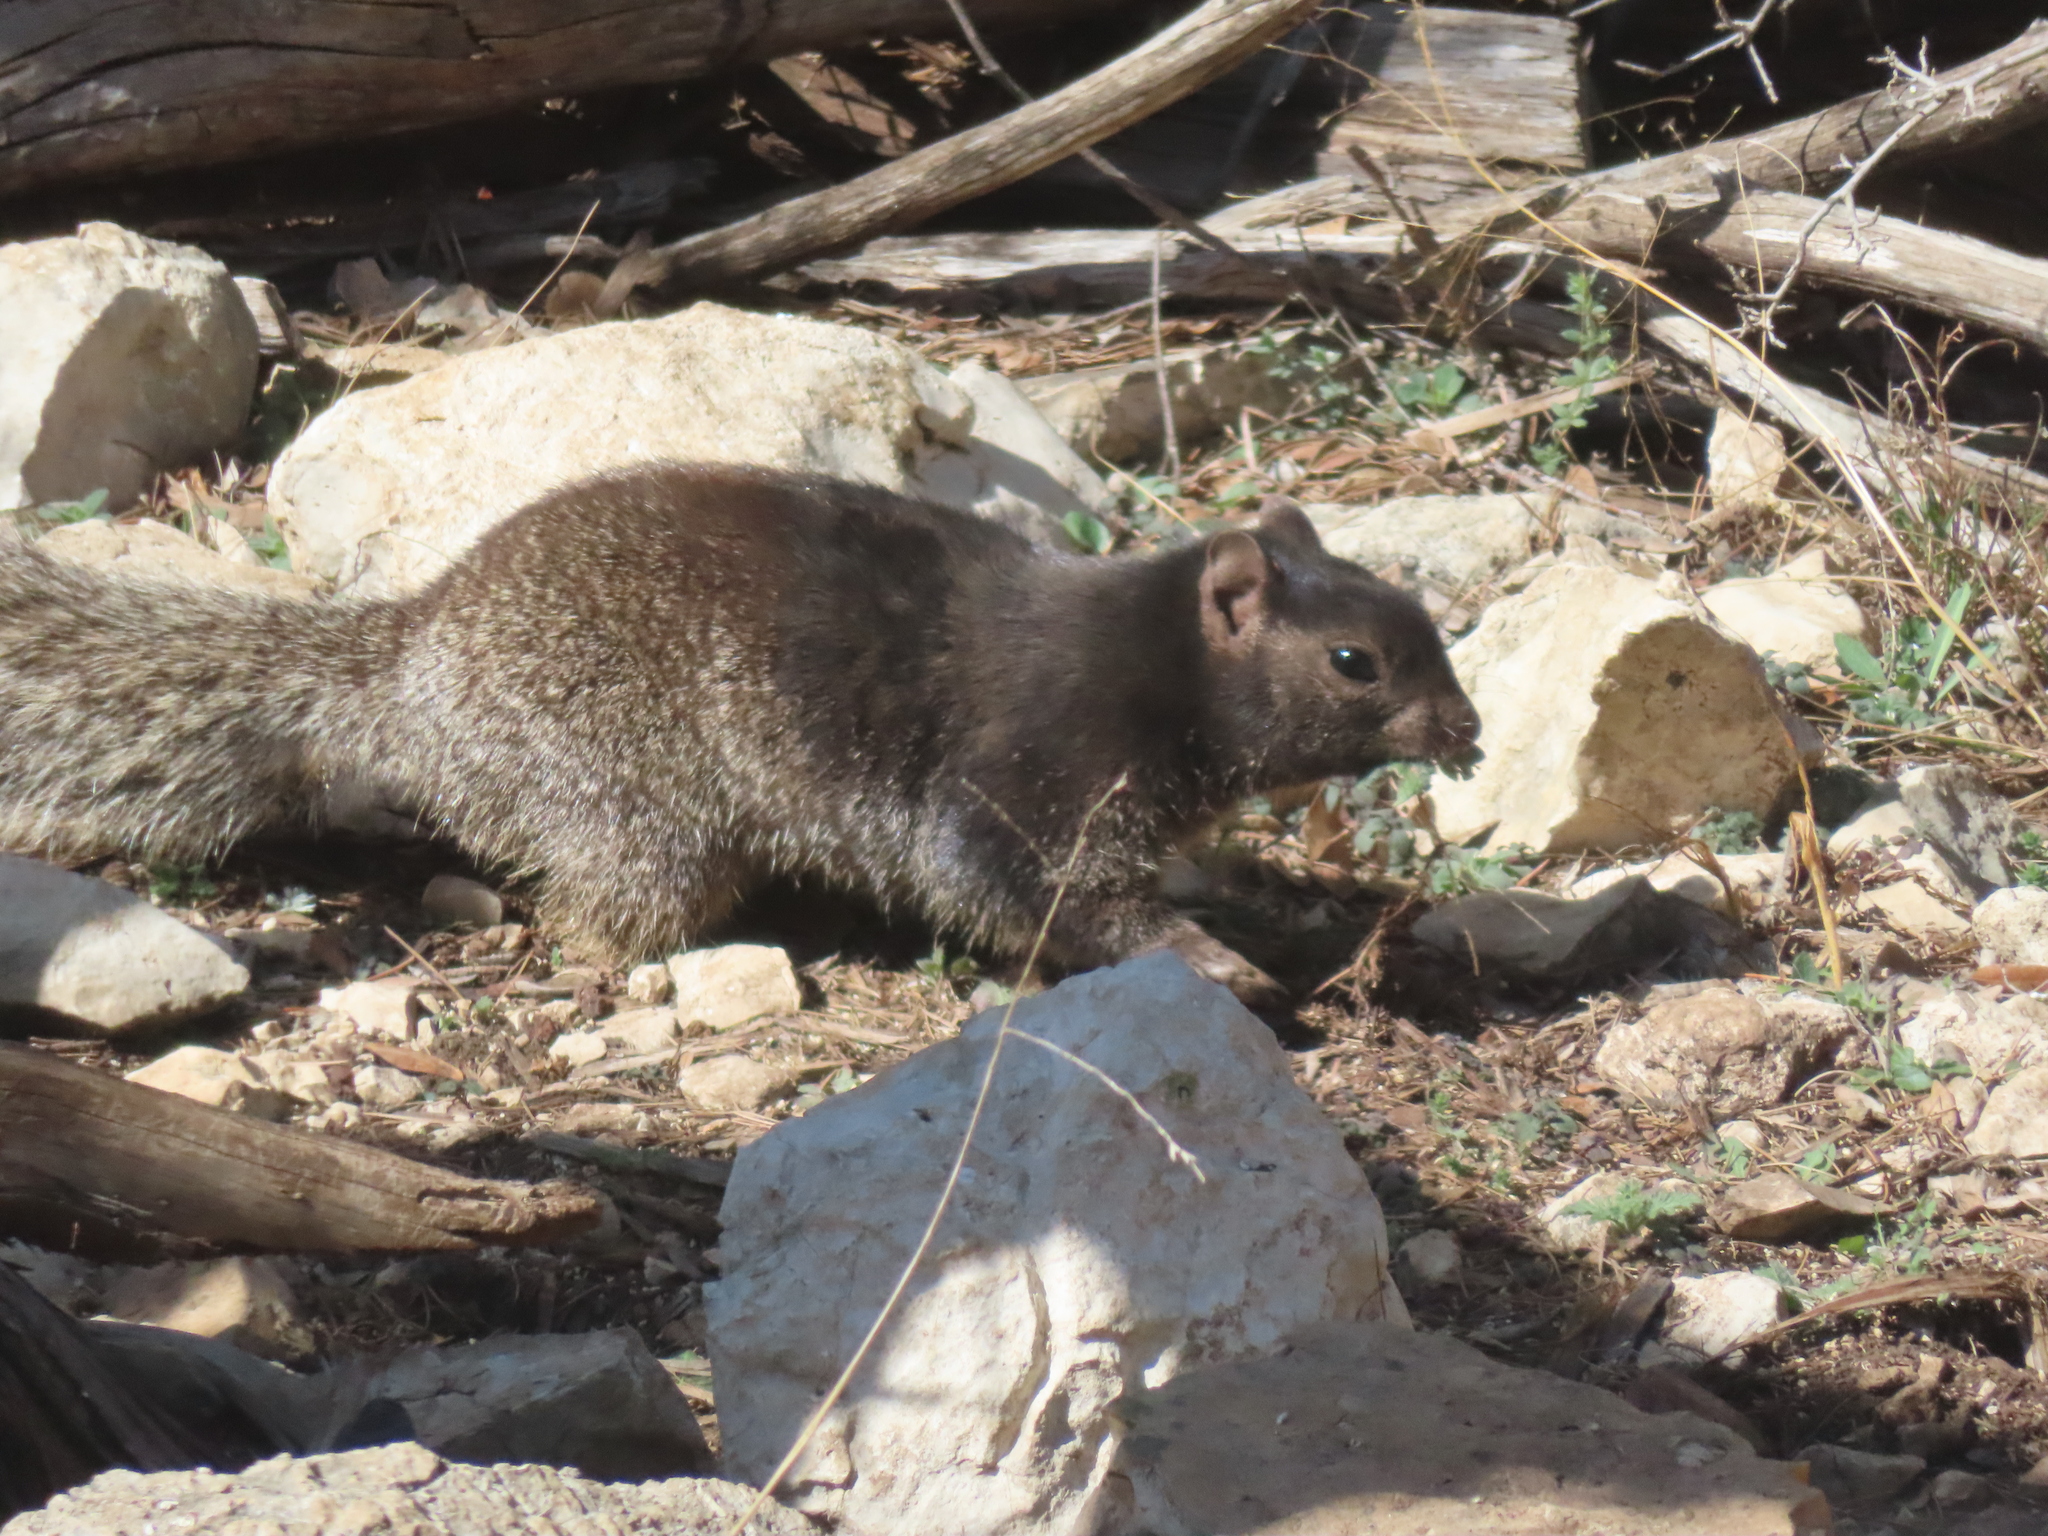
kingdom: Animalia
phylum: Chordata
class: Mammalia
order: Rodentia
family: Sciuridae
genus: Otospermophilus
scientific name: Otospermophilus variegatus
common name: Rock squirrel
